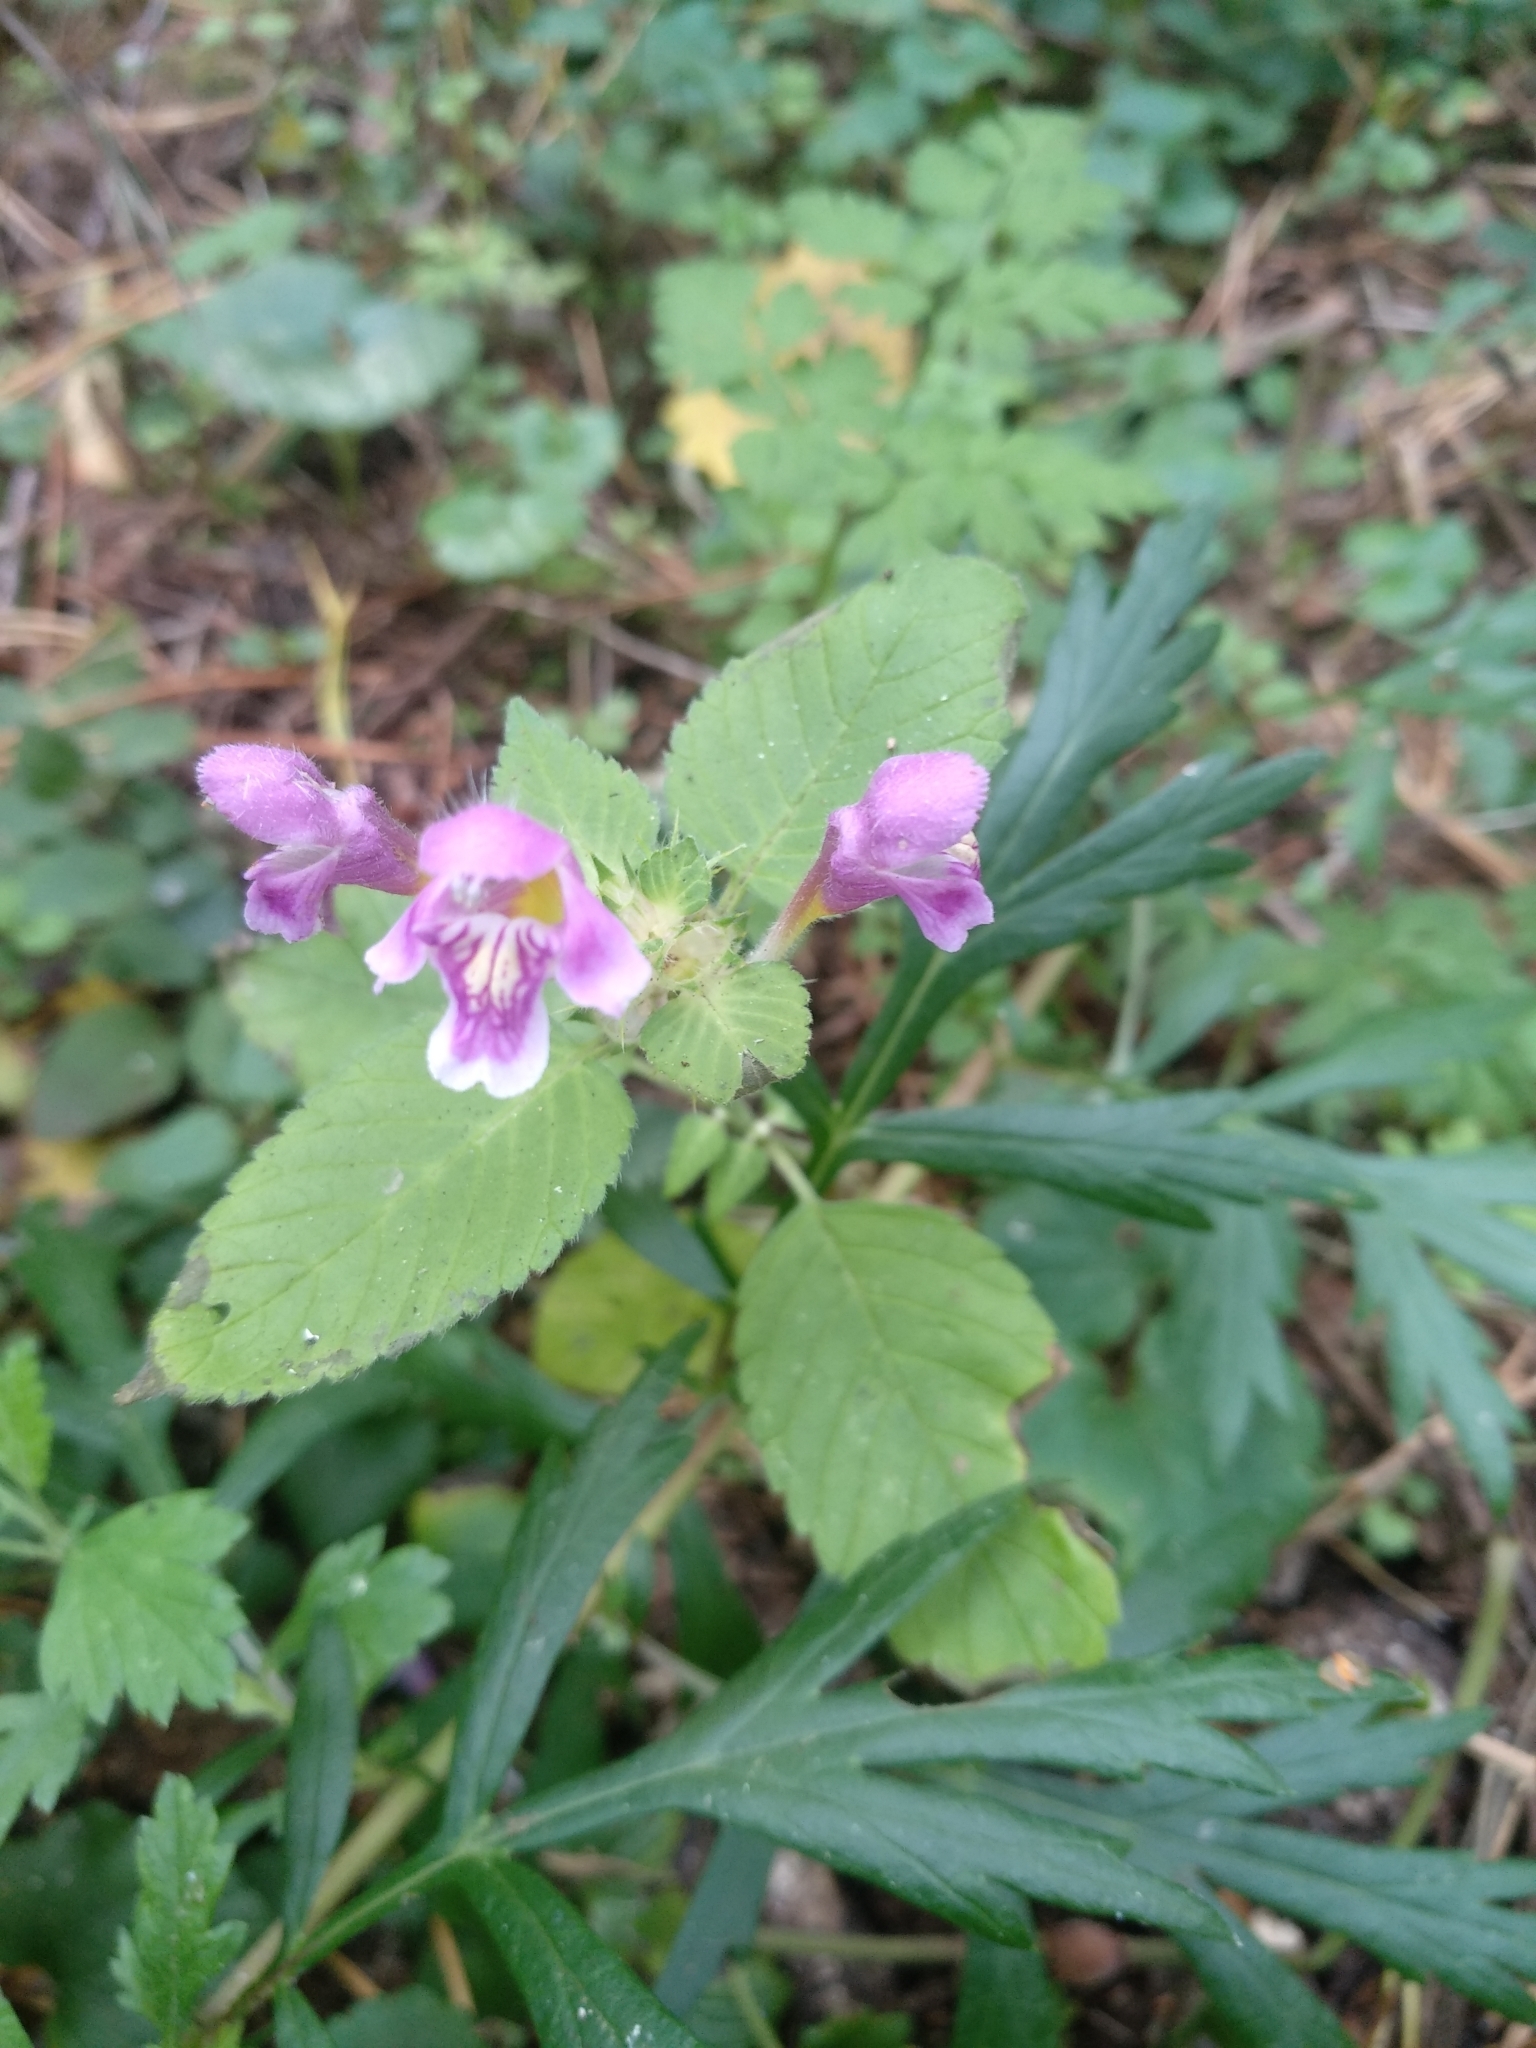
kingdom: Plantae
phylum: Tracheophyta
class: Magnoliopsida
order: Lamiales
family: Lamiaceae
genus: Galeopsis
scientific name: Galeopsis pubescens
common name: Downy hemp-nettle
